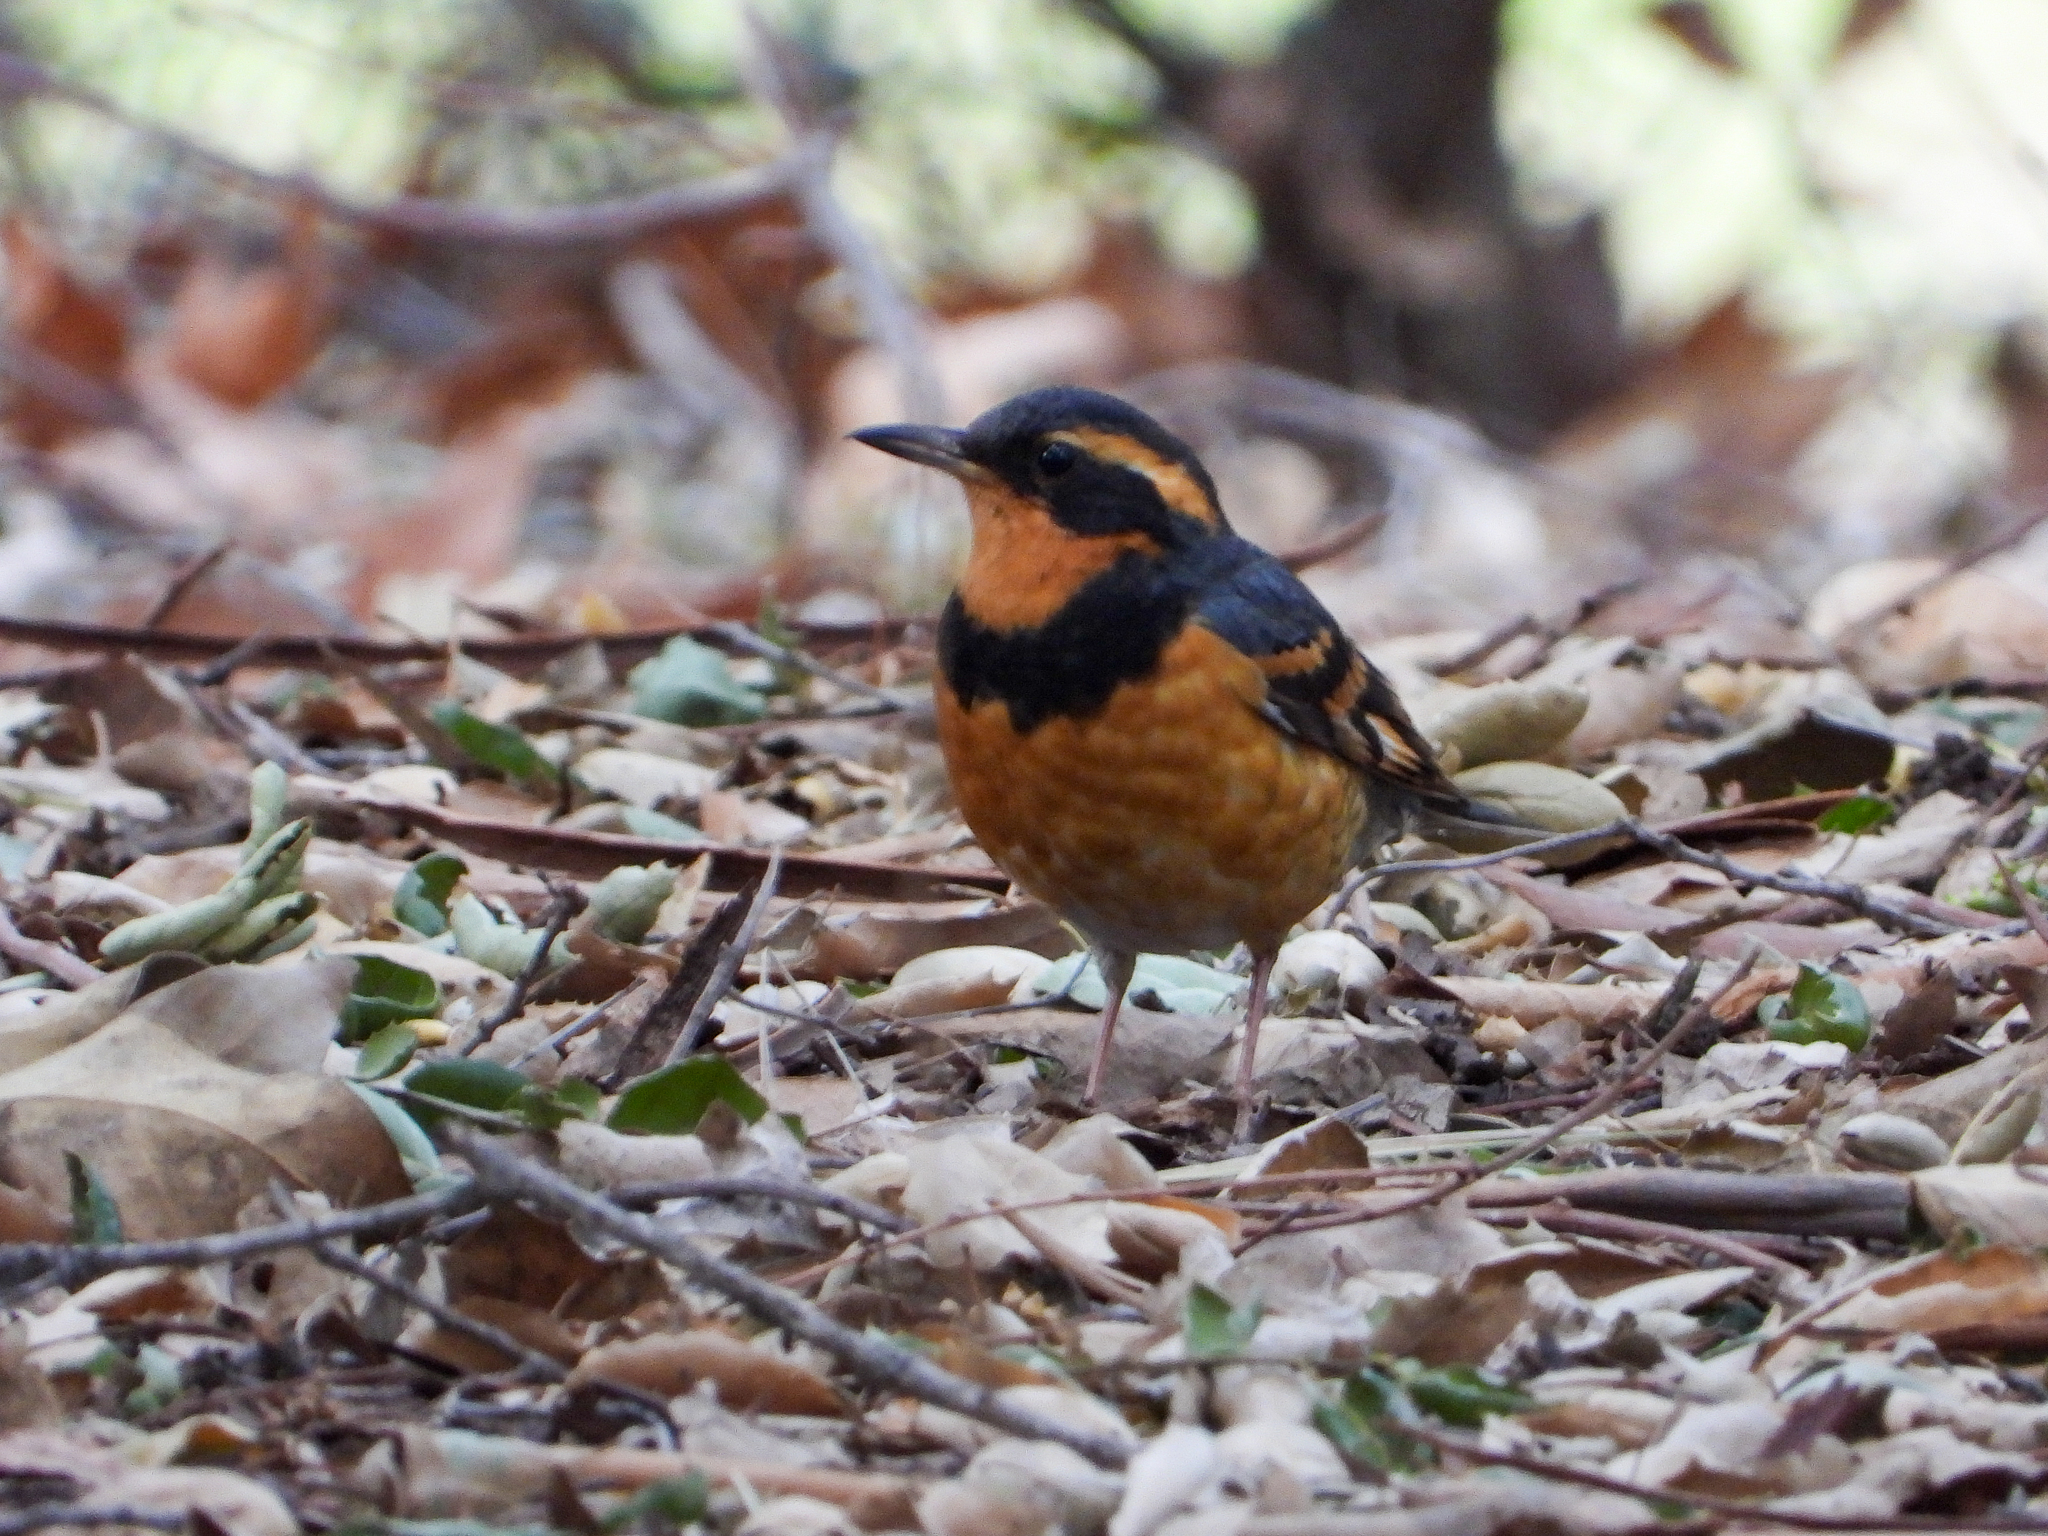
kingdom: Animalia
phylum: Chordata
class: Aves
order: Passeriformes
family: Turdidae
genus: Ixoreus
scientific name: Ixoreus naevius
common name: Varied thrush
